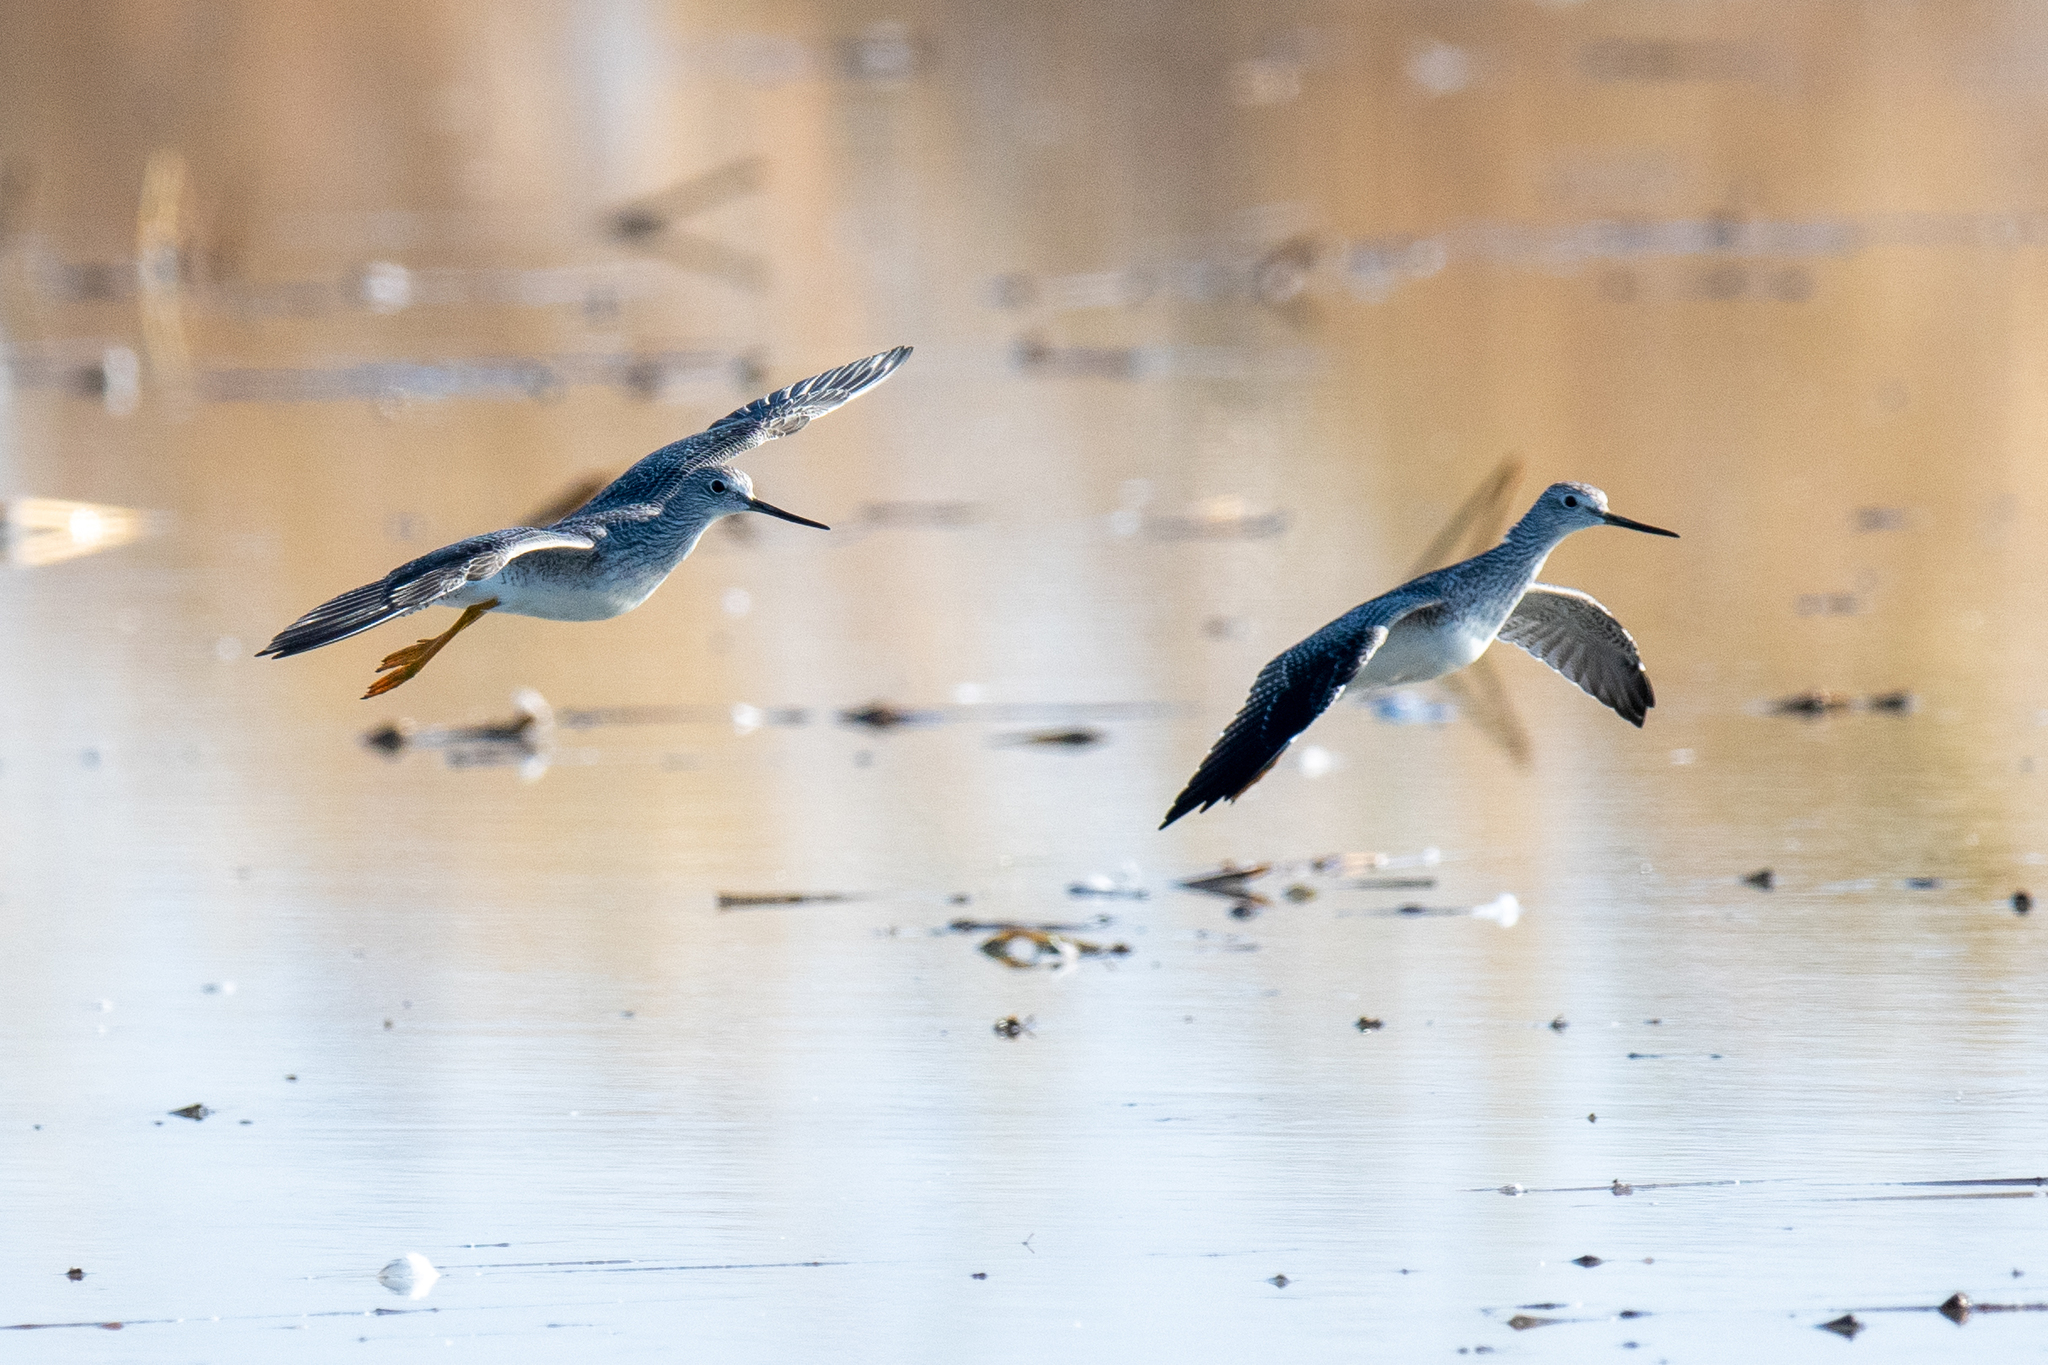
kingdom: Animalia
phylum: Chordata
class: Aves
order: Charadriiformes
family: Scolopacidae
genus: Tringa
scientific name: Tringa melanoleuca
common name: Greater yellowlegs
